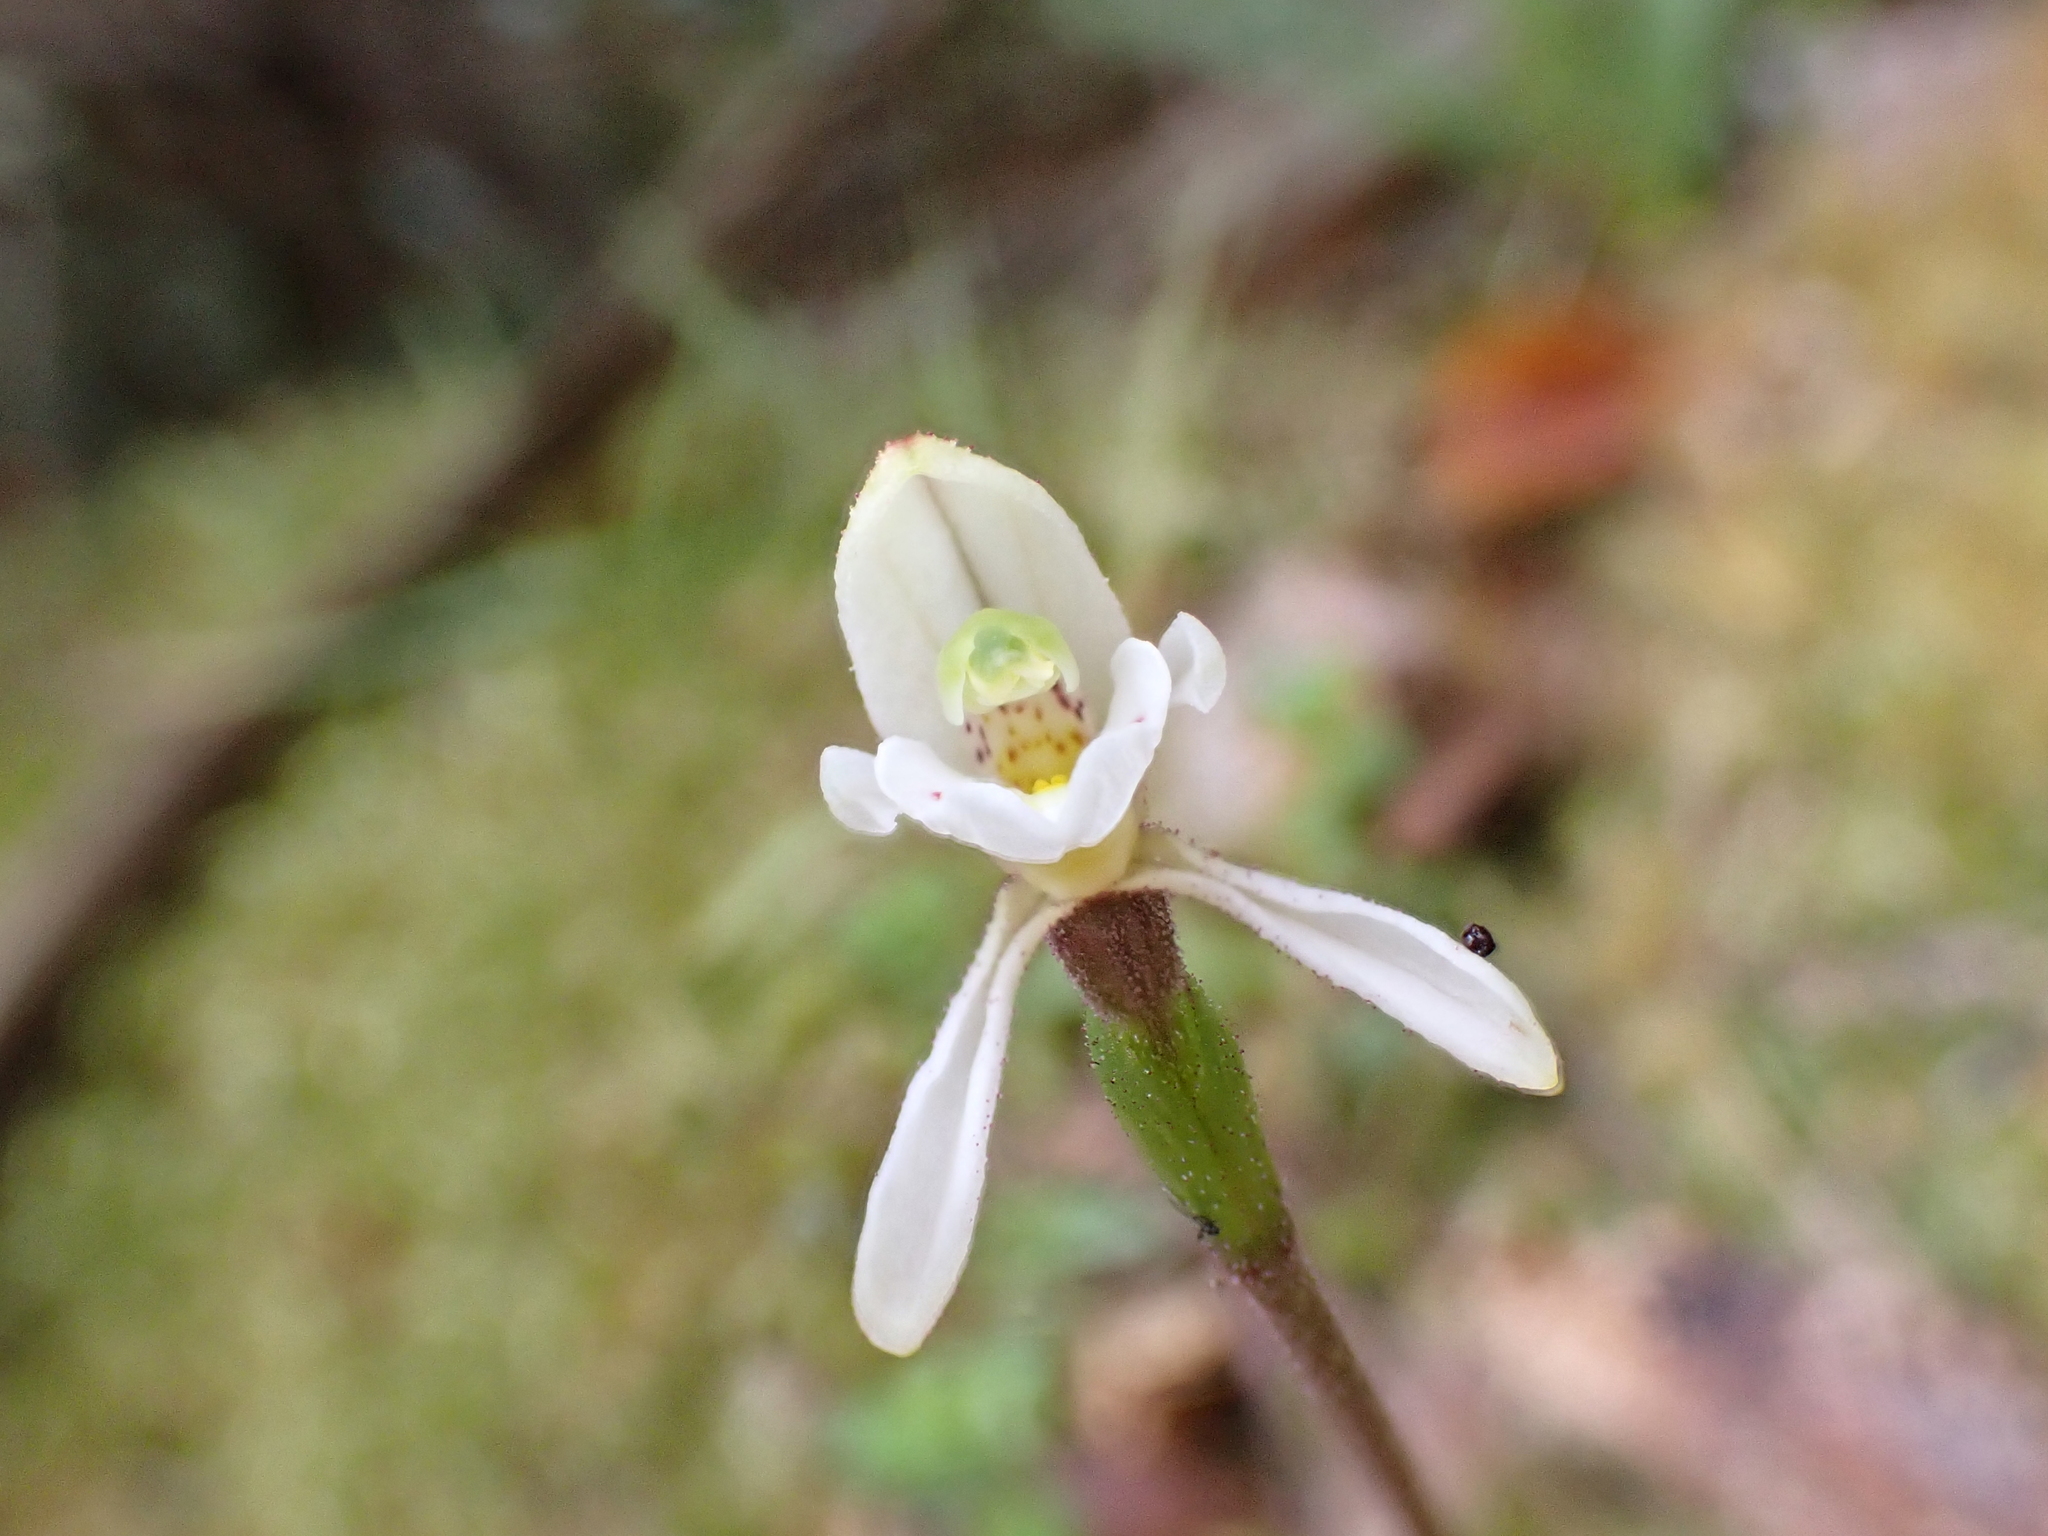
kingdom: Plantae
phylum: Tracheophyta
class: Liliopsida
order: Asparagales
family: Orchidaceae
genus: Aporostylis
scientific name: Aporostylis bifolia
